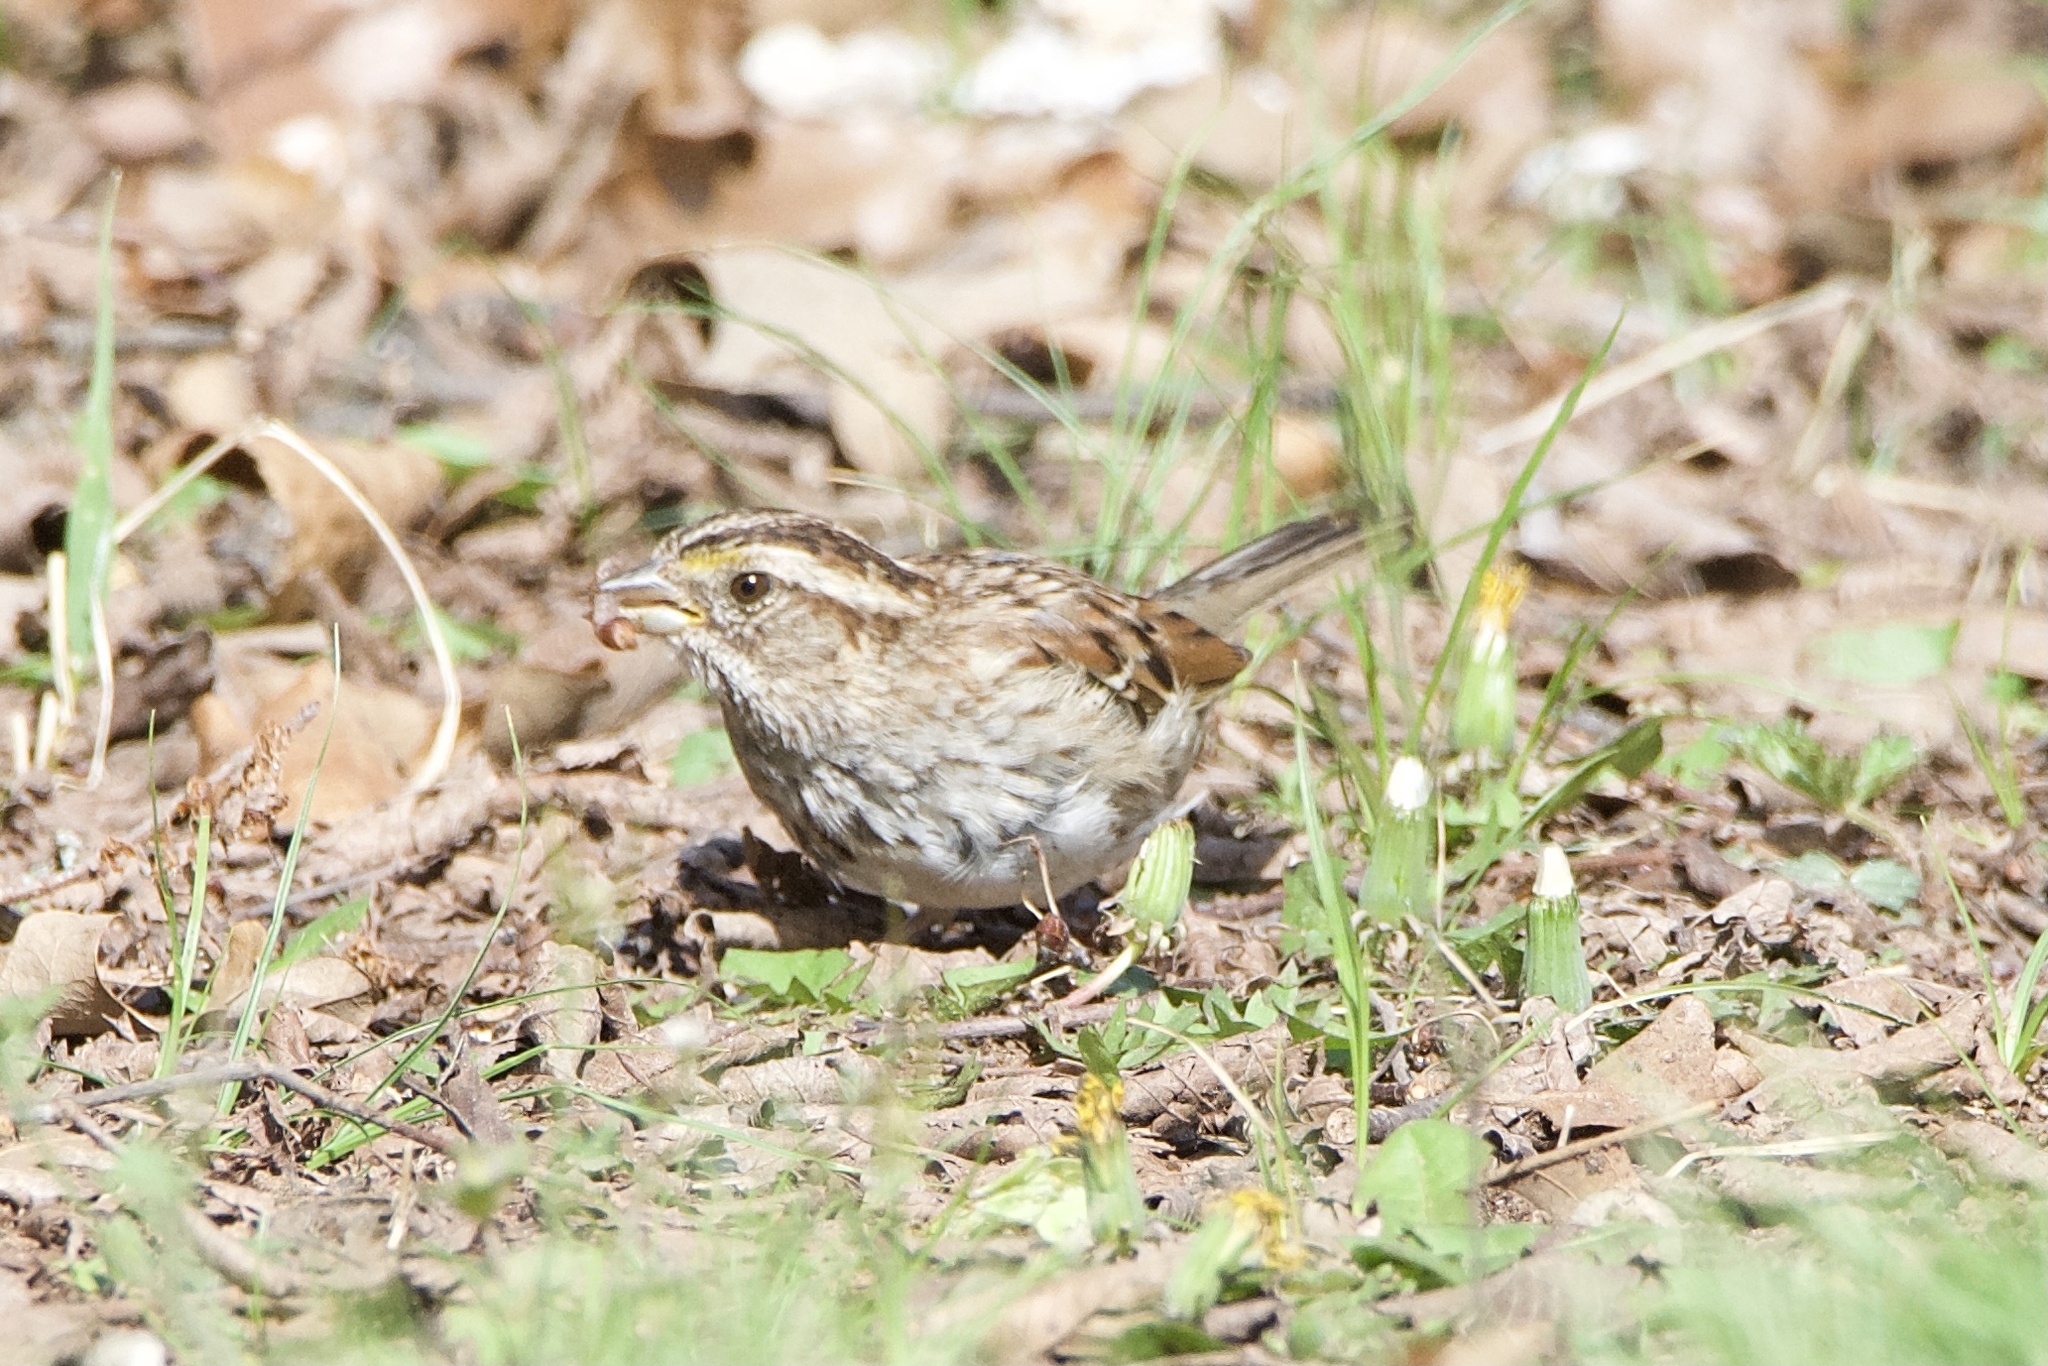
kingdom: Animalia
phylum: Chordata
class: Aves
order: Passeriformes
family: Passerellidae
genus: Zonotrichia
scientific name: Zonotrichia albicollis
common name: White-throated sparrow
